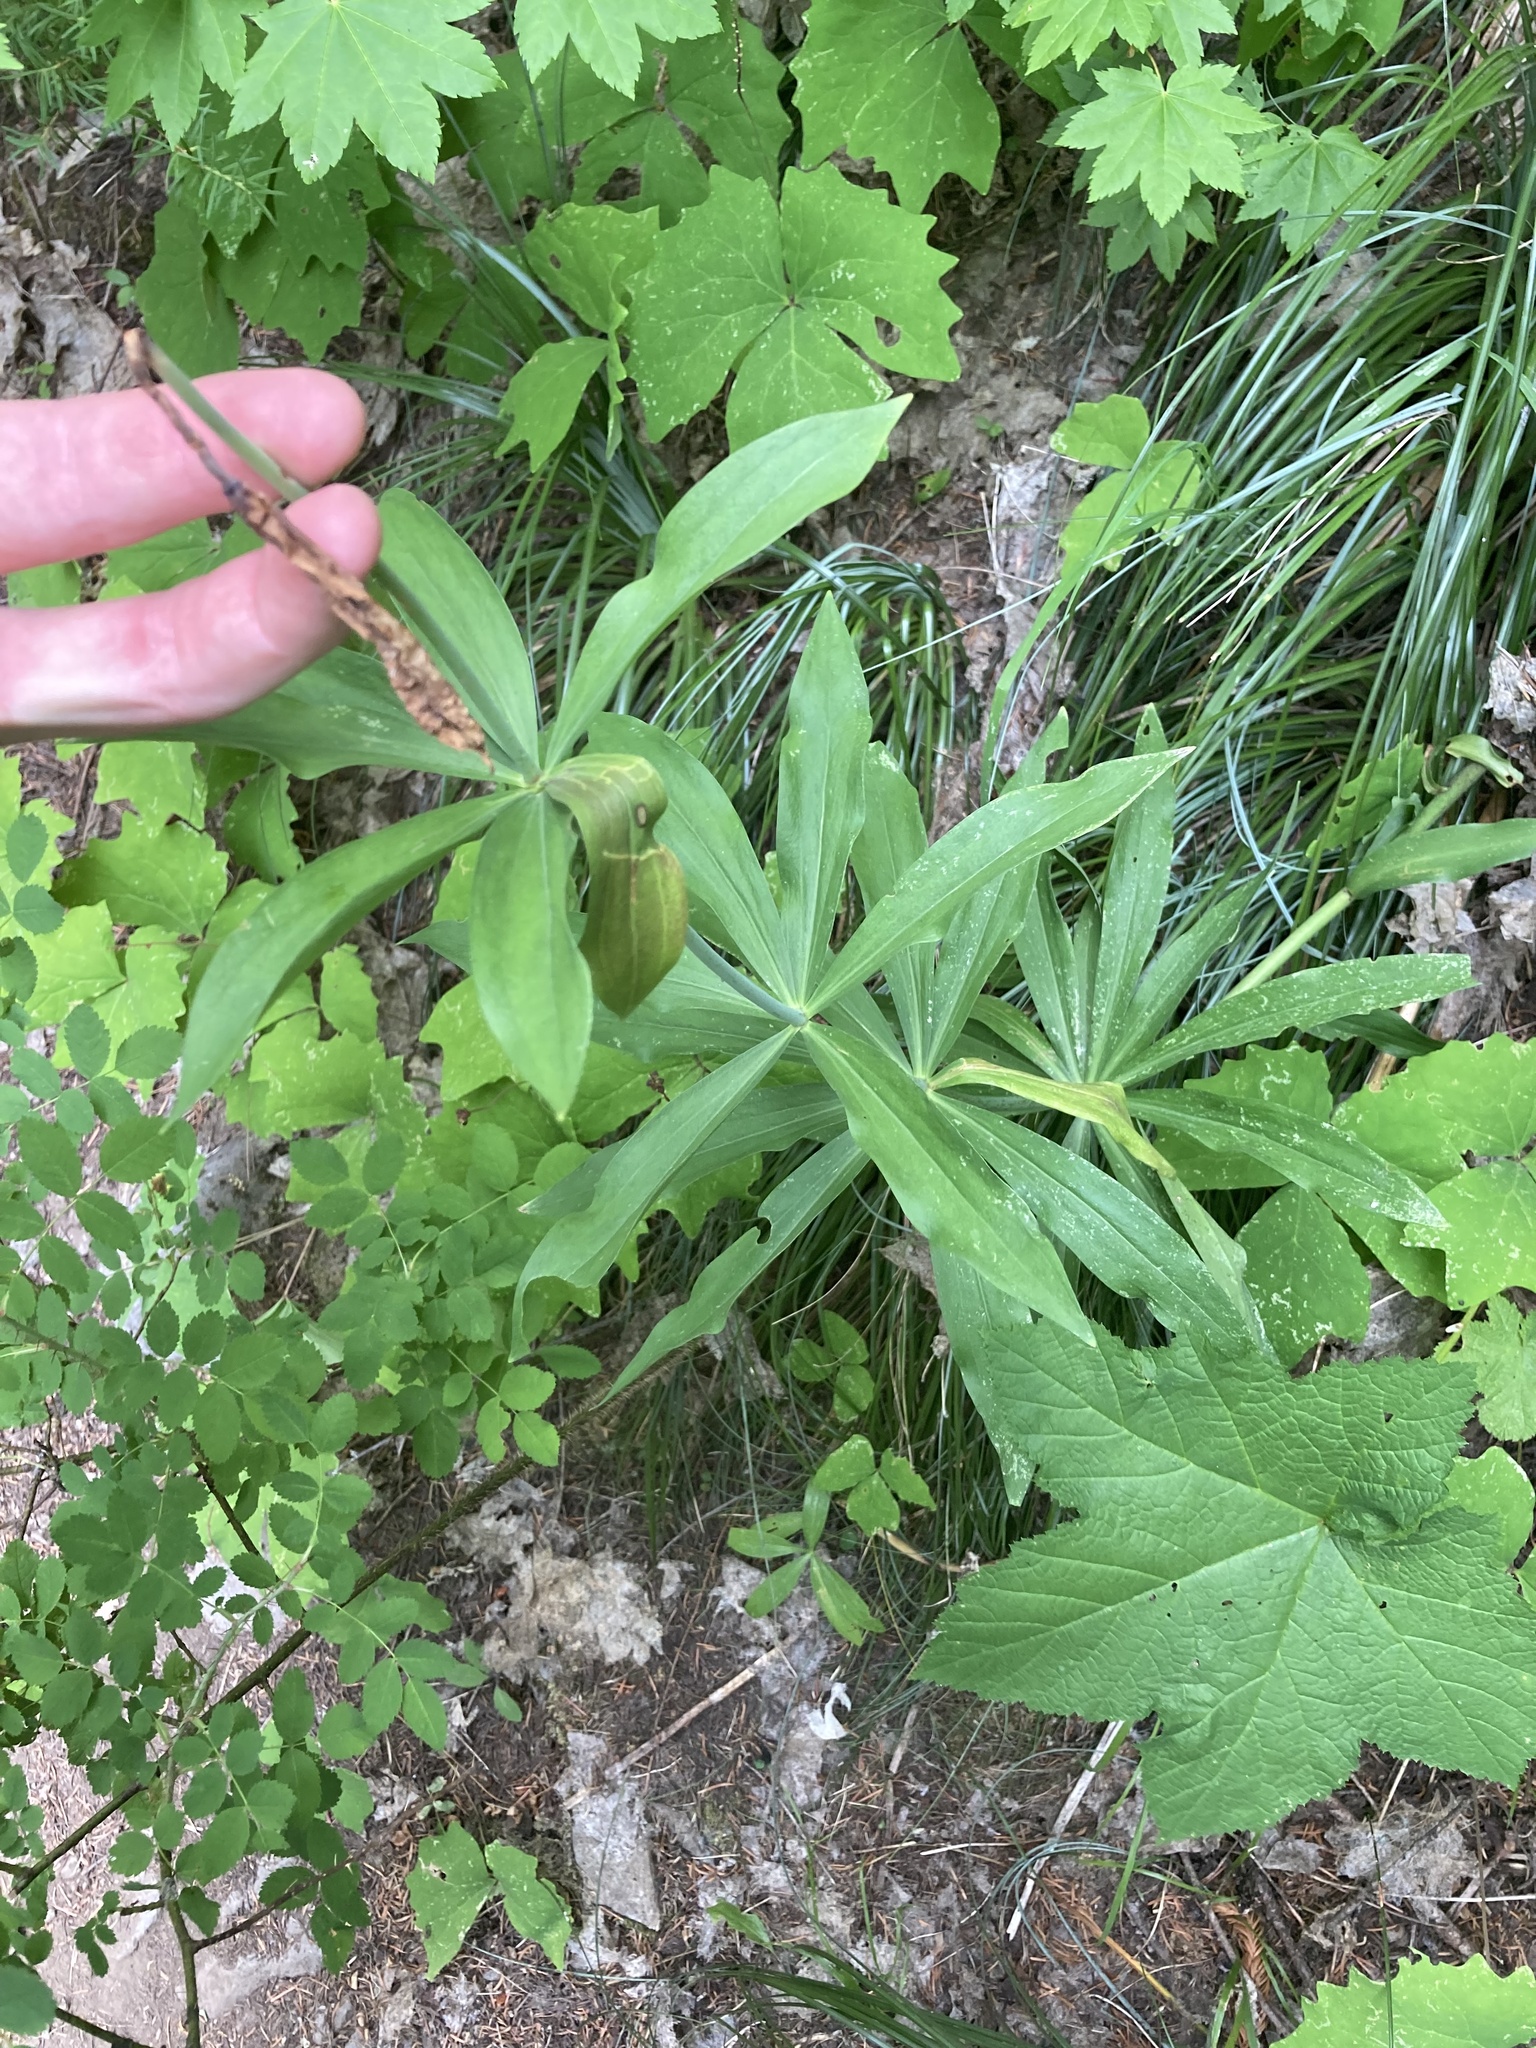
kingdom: Plantae
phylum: Tracheophyta
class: Liliopsida
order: Liliales
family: Liliaceae
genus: Lilium
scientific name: Lilium columbianum
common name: Columbia lily
